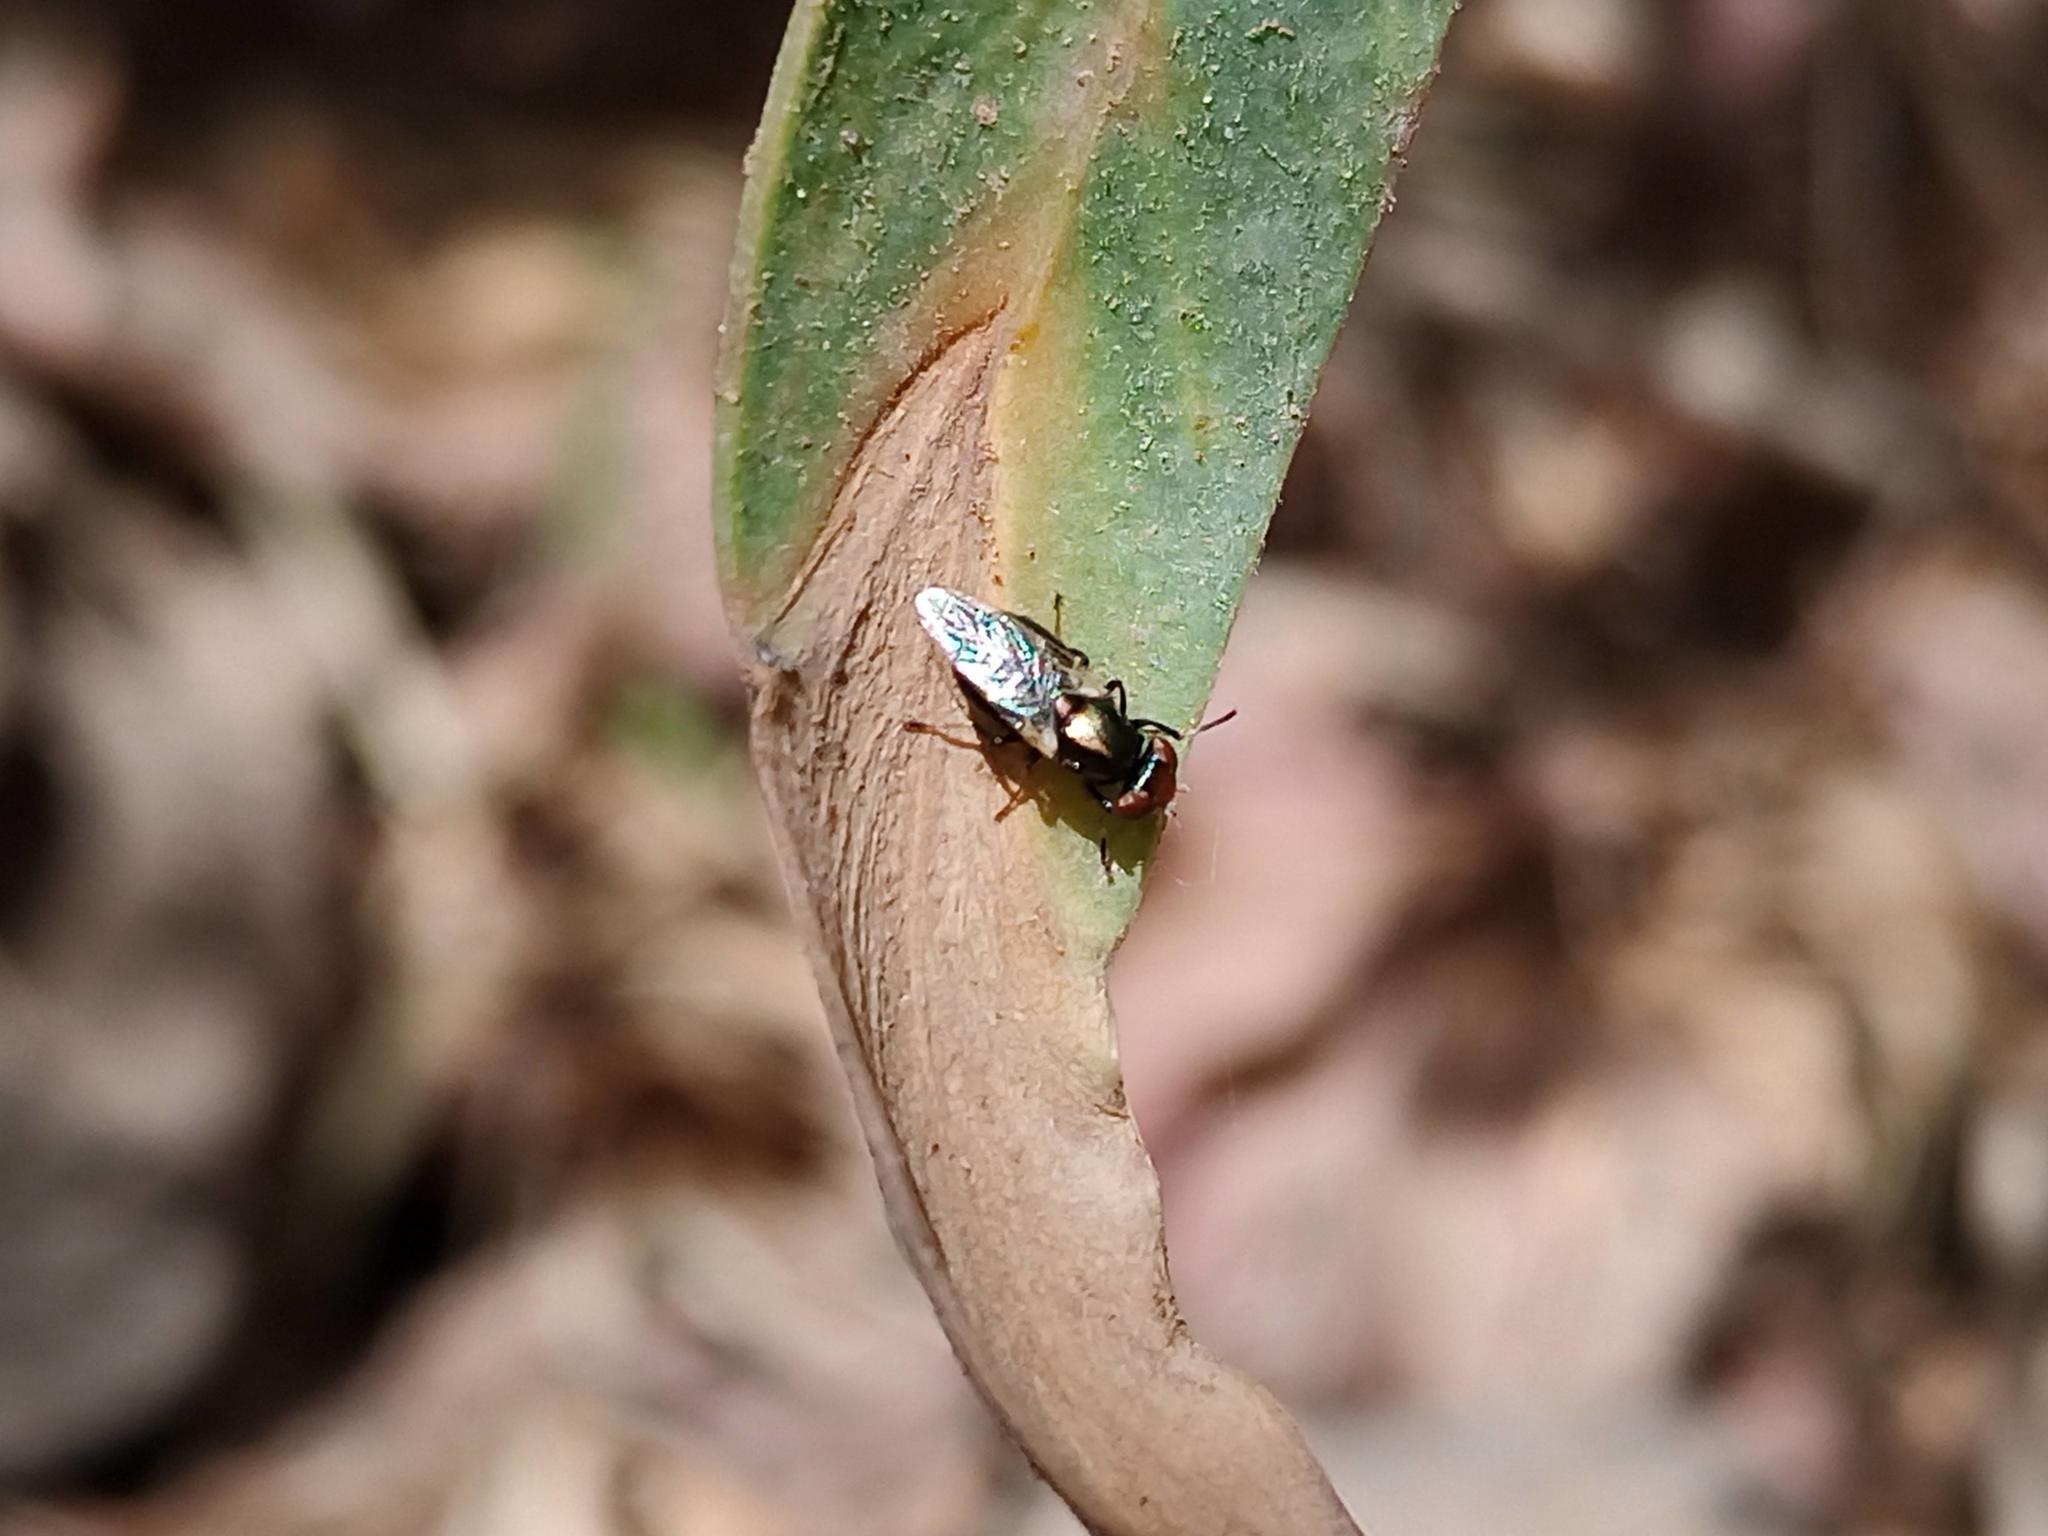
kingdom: Animalia
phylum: Arthropoda
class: Insecta
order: Diptera
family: Ulidiidae
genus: Physiphora
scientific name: Physiphora alceae
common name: Picture-winged fly
